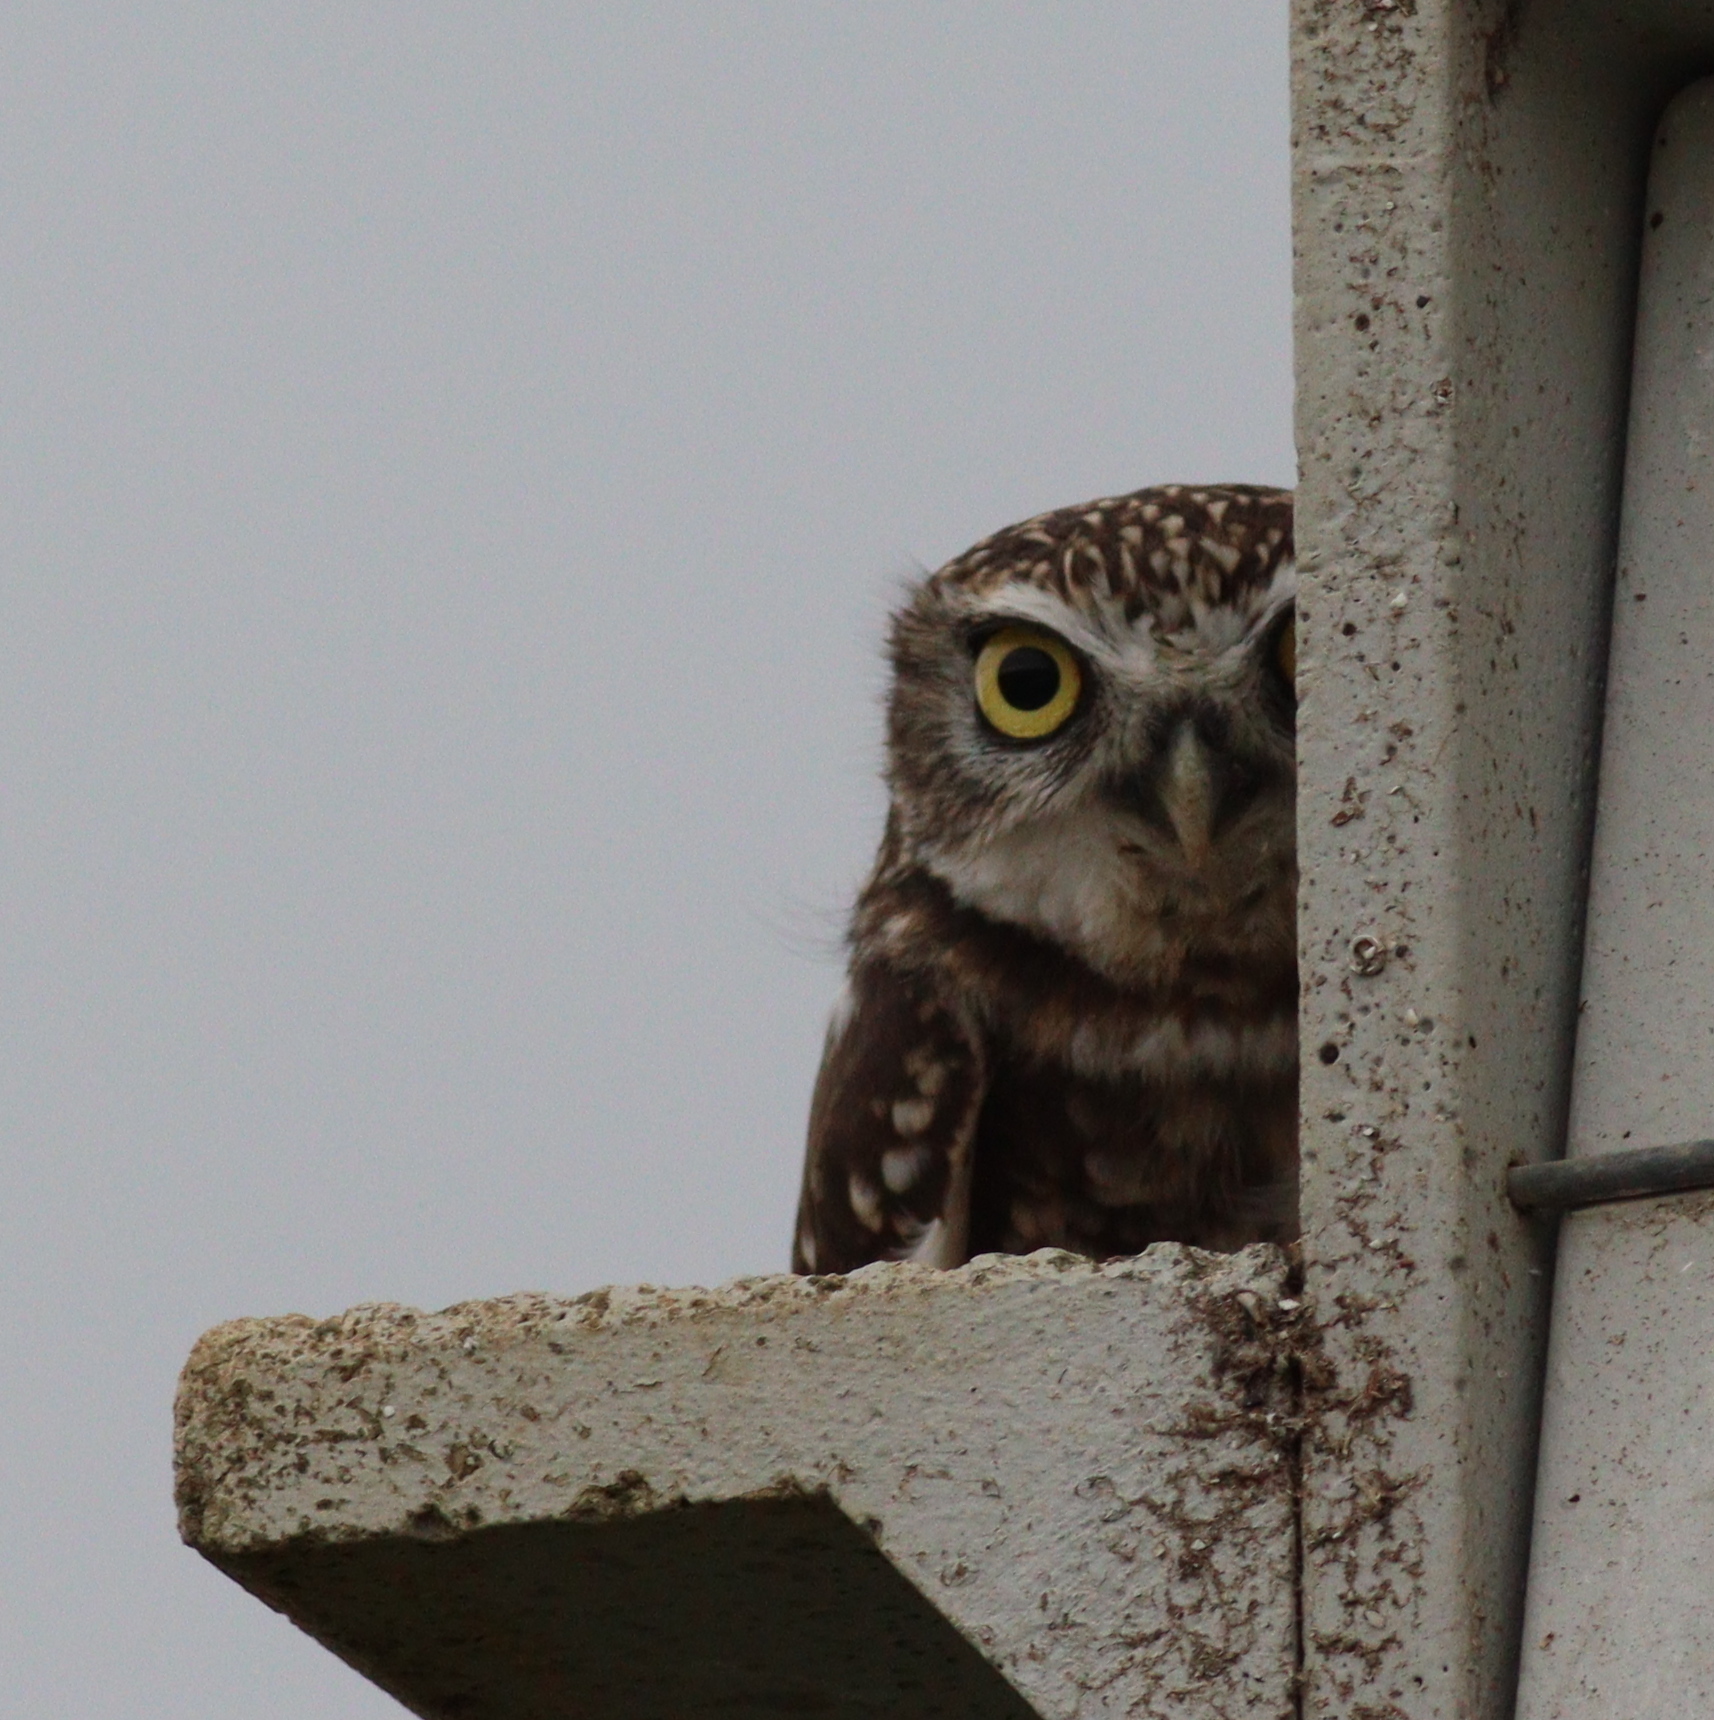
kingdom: Animalia
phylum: Chordata
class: Aves
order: Strigiformes
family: Strigidae
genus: Athene
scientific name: Athene noctua
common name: Little owl
